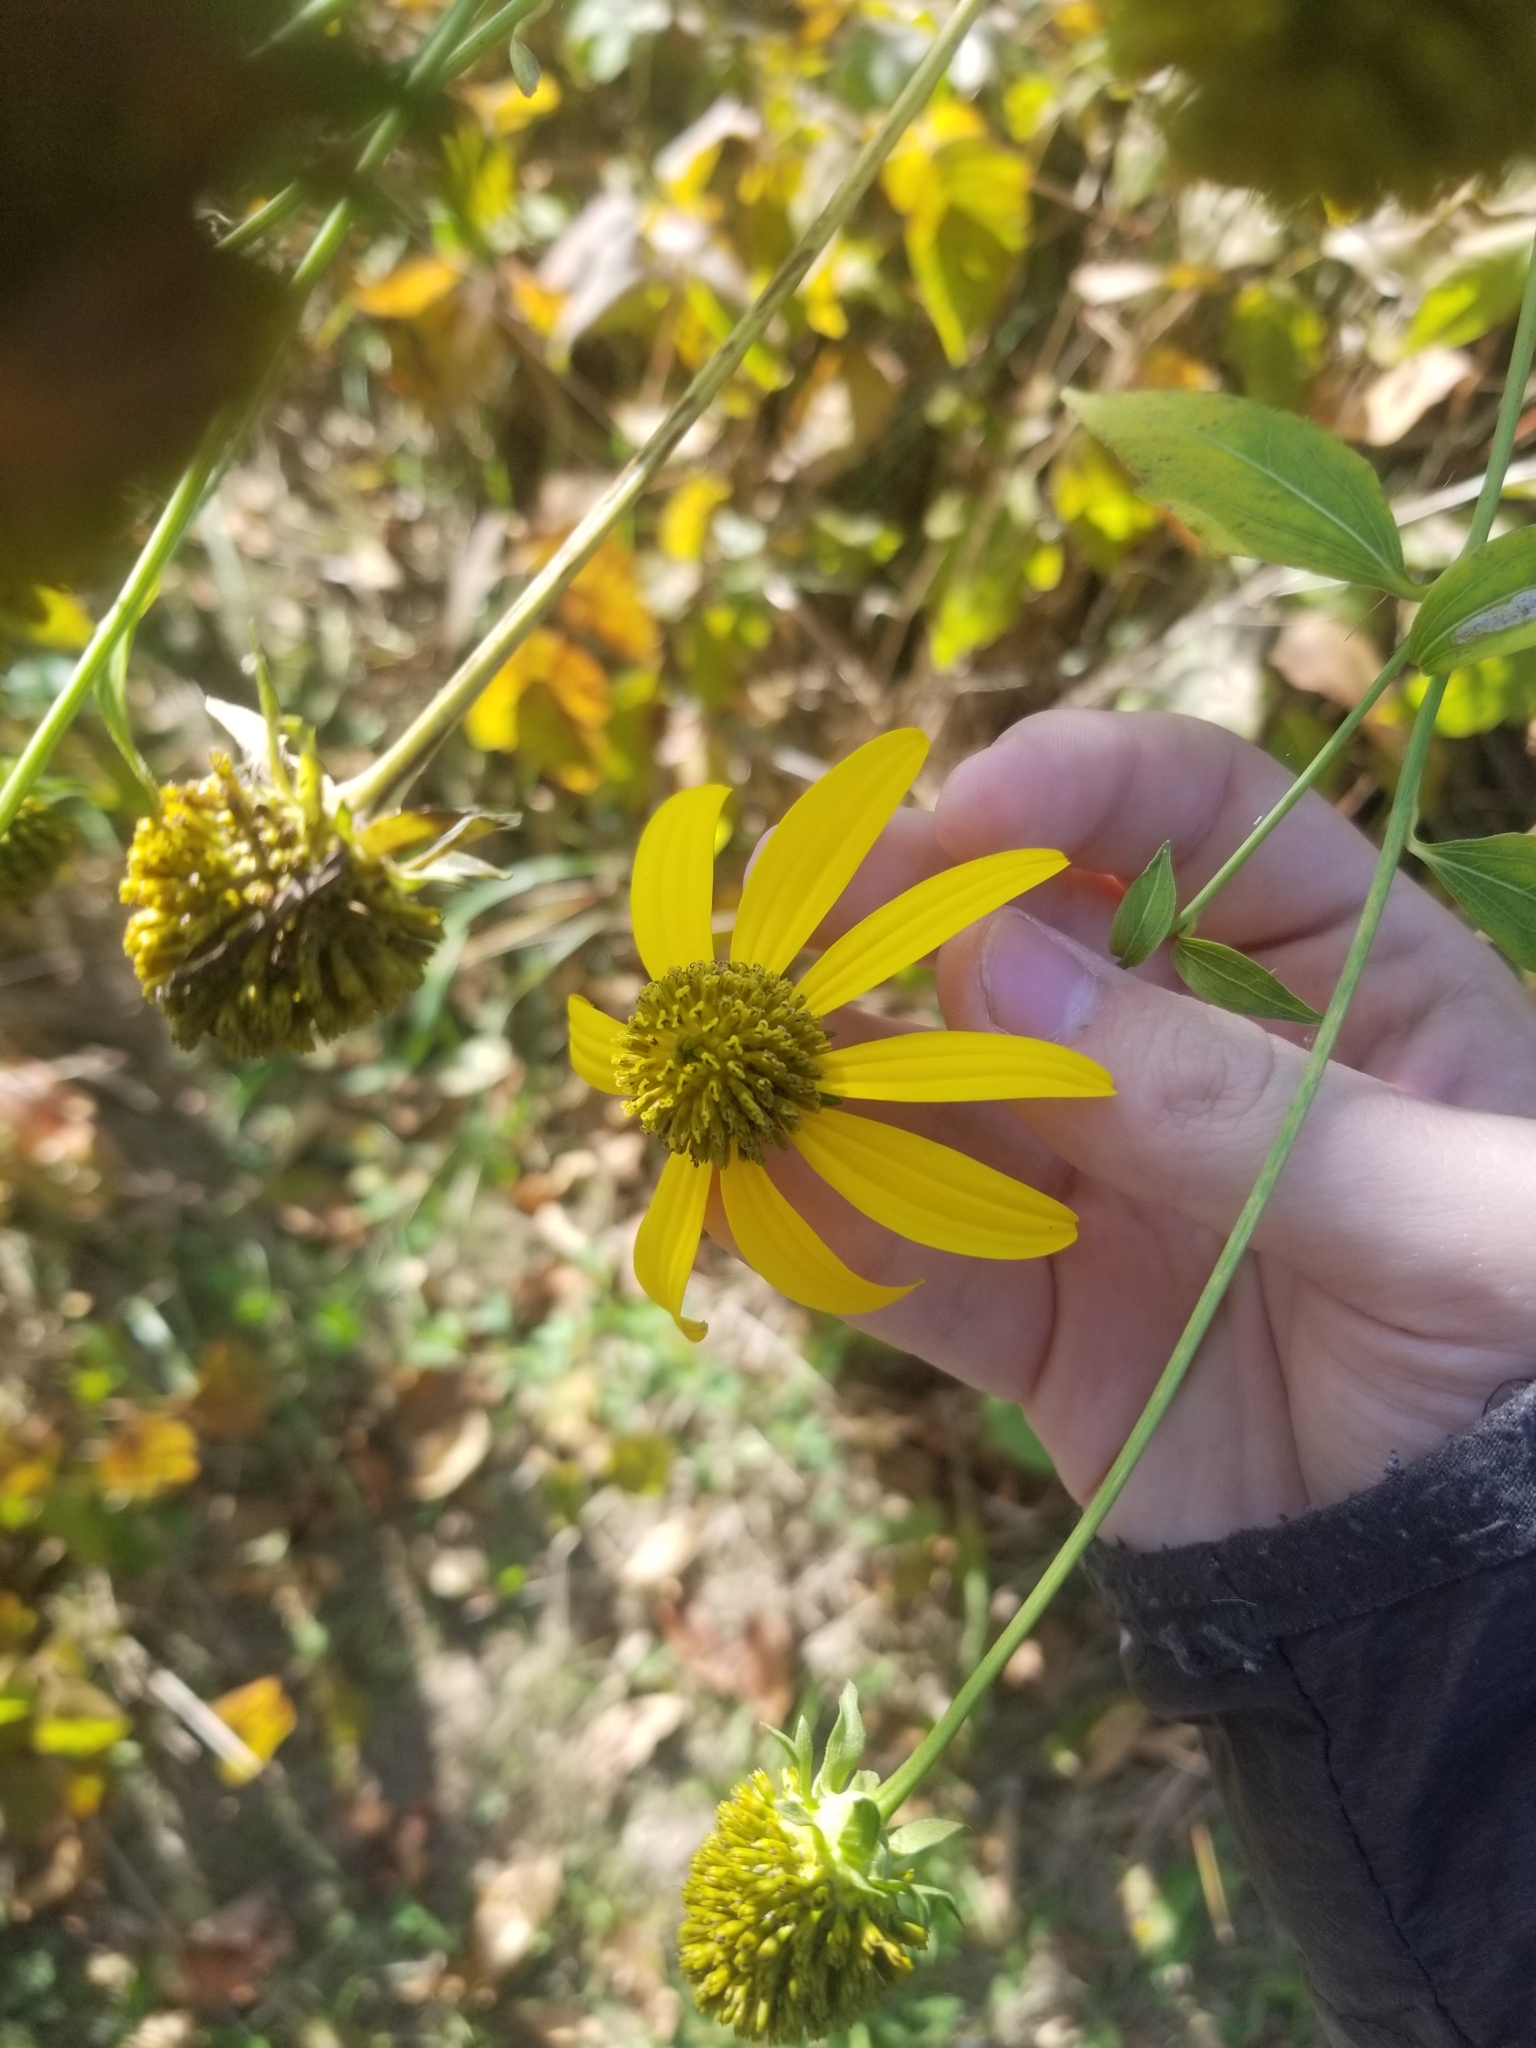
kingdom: Plantae
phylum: Tracheophyta
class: Magnoliopsida
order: Asterales
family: Asteraceae
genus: Rudbeckia
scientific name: Rudbeckia laciniata
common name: Coneflower
